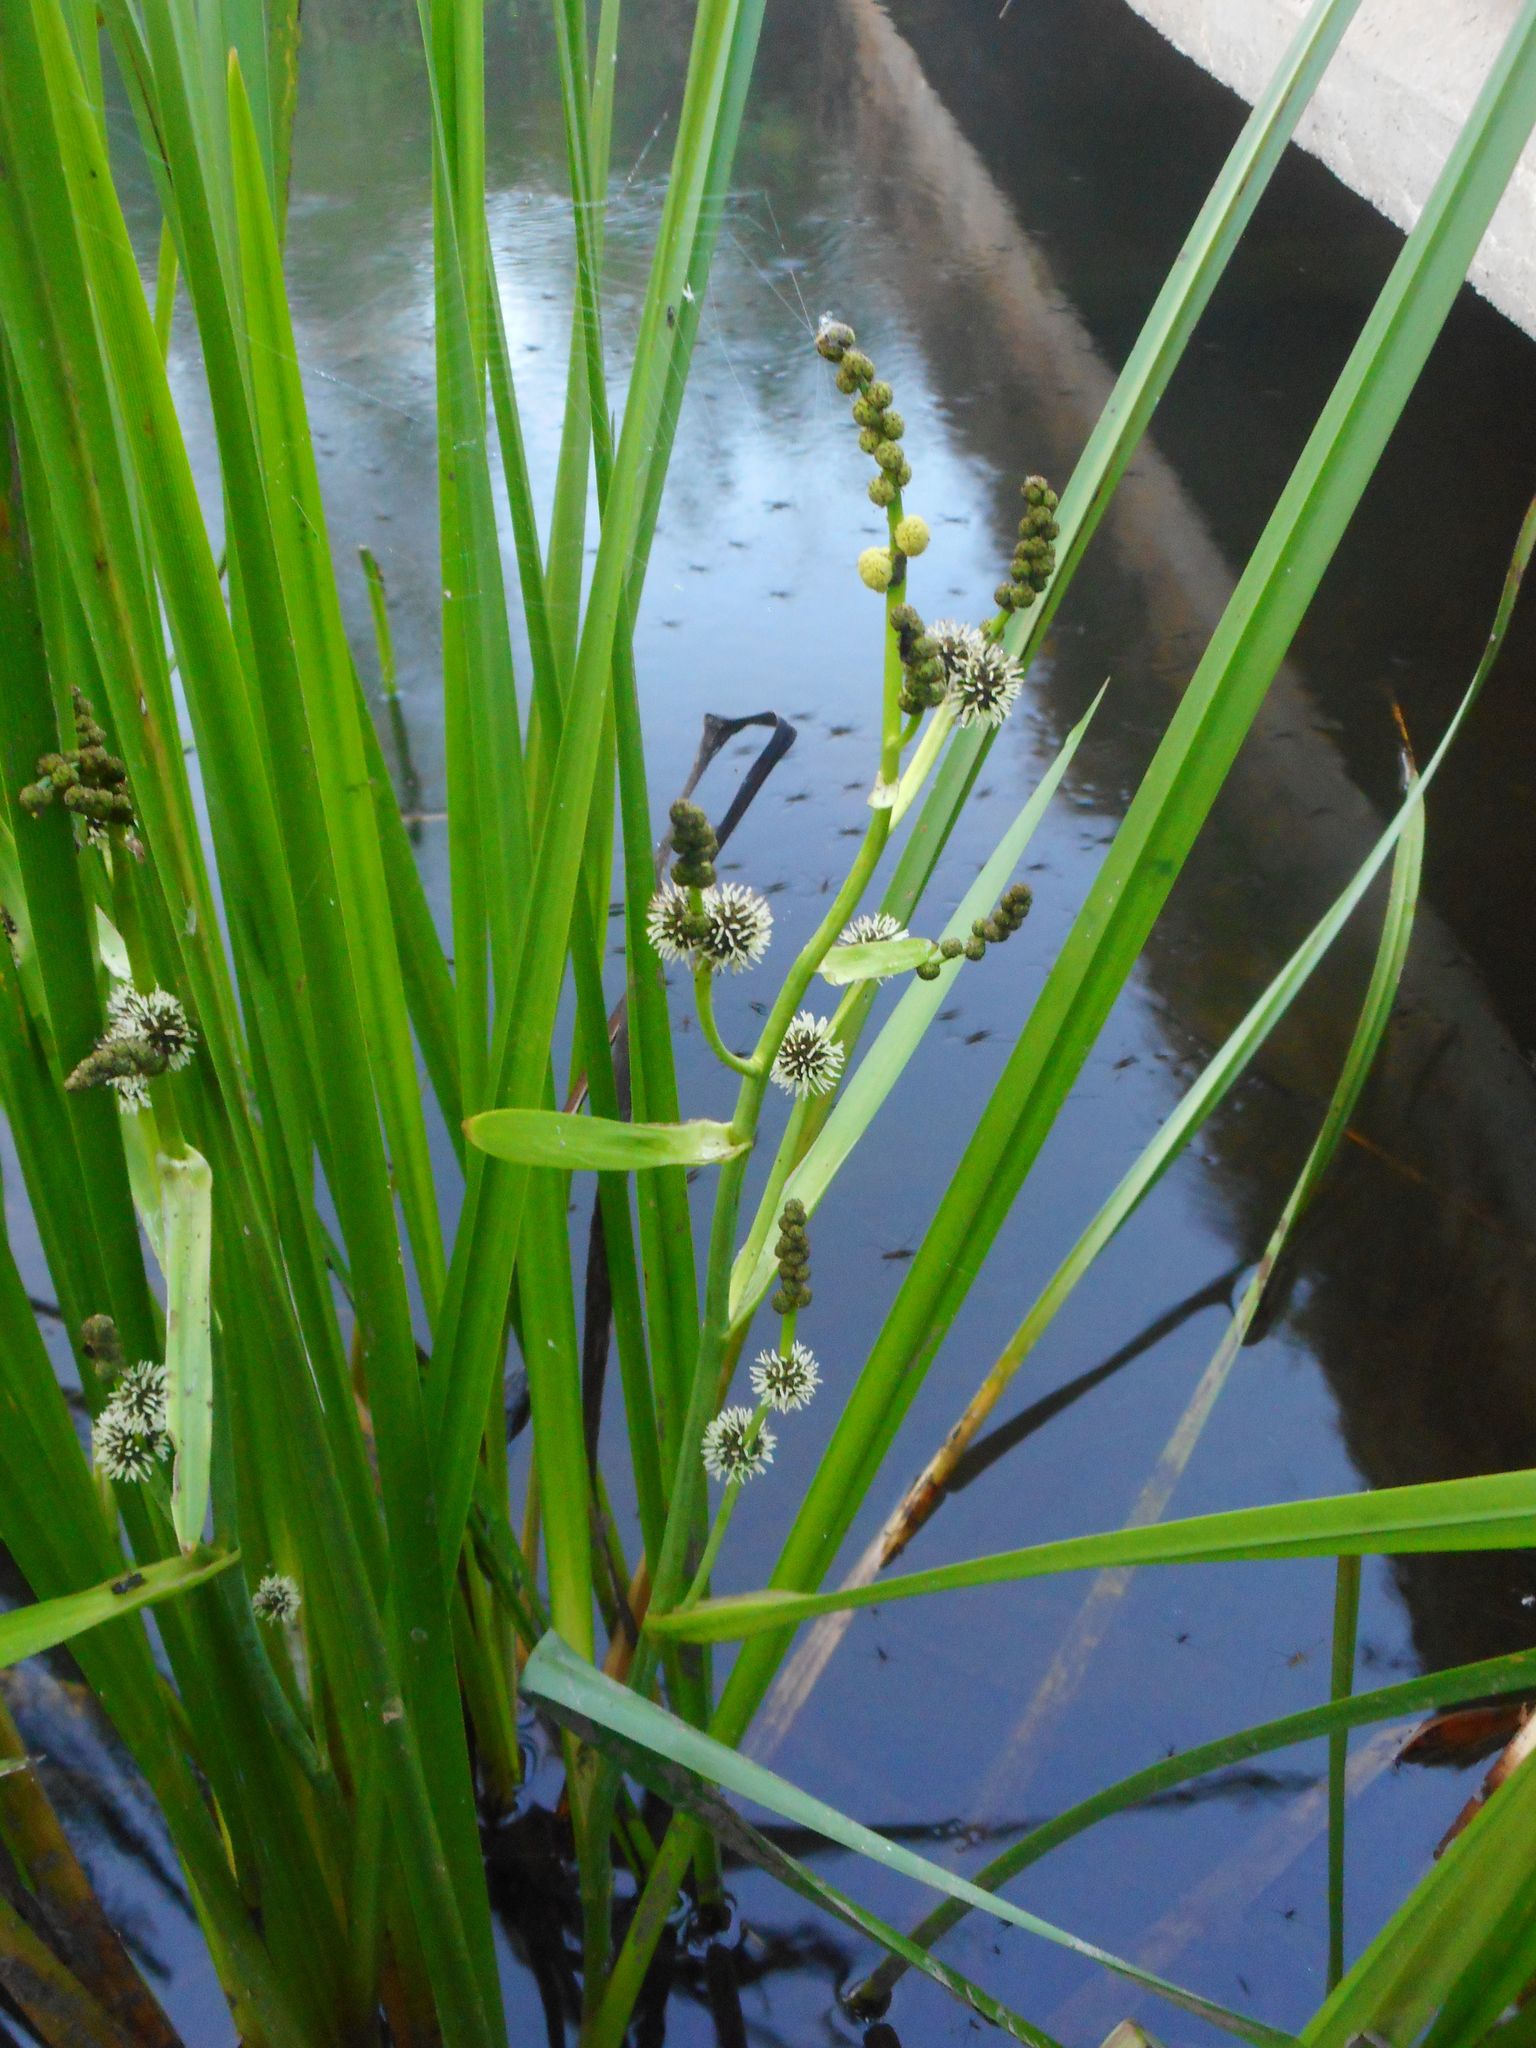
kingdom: Plantae
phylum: Tracheophyta
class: Liliopsida
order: Poales
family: Typhaceae
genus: Sparganium
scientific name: Sparganium erectum
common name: Branched bur-reed
